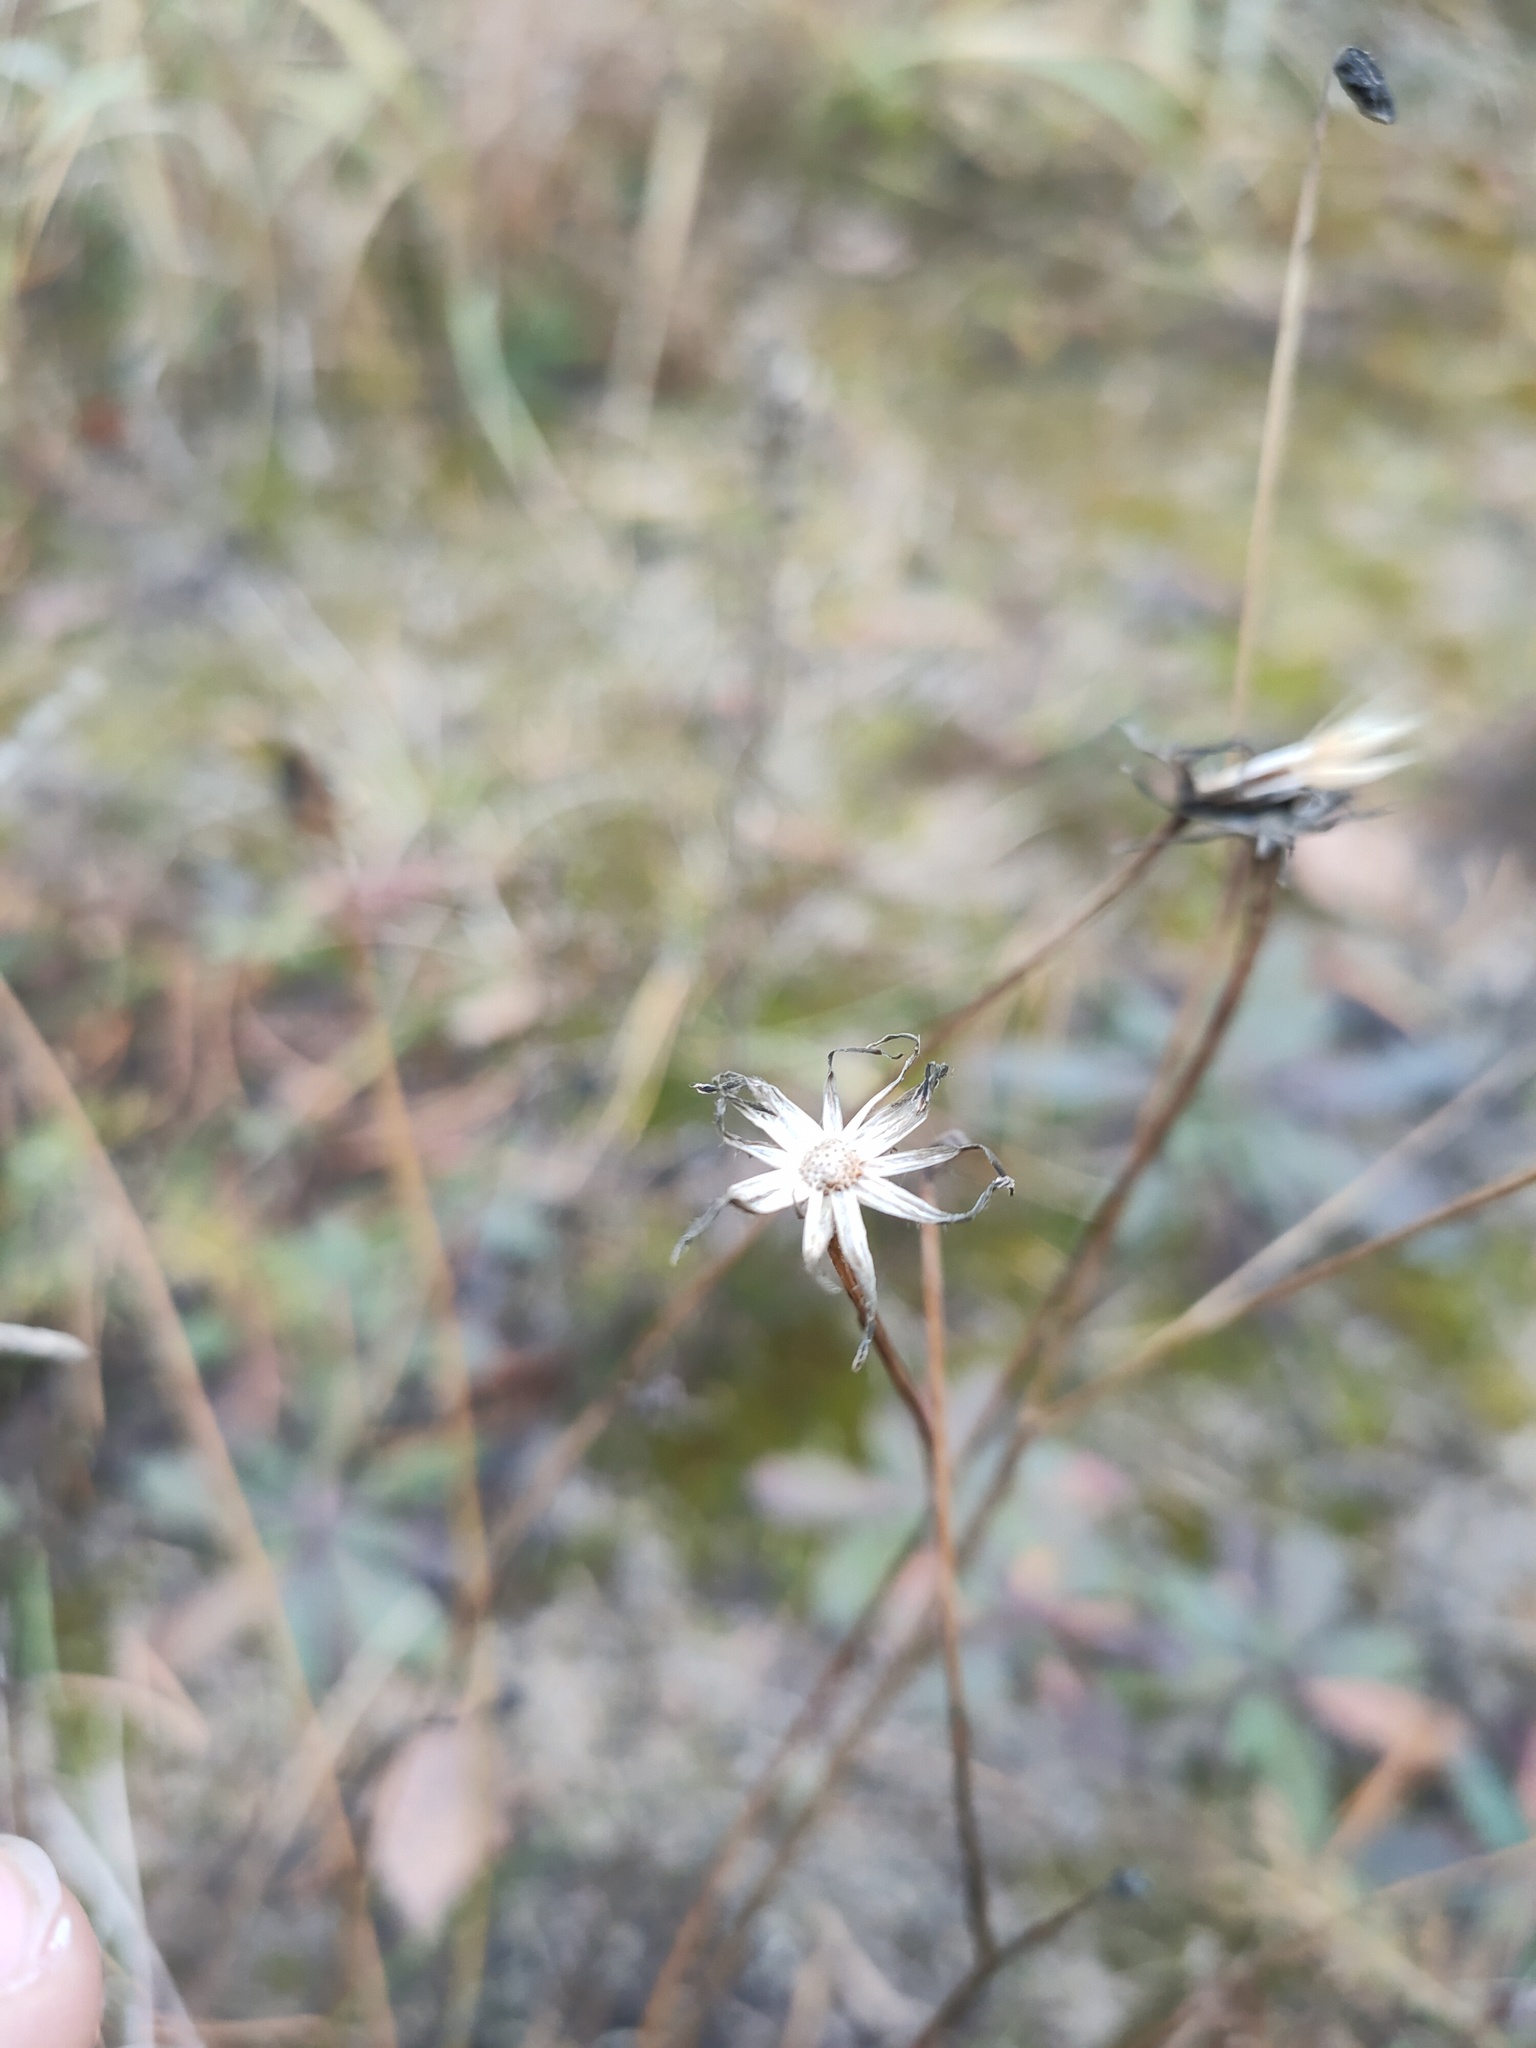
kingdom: Plantae
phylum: Tracheophyta
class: Magnoliopsida
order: Asterales
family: Asteraceae
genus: Erigeron
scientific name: Erigeron acris
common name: Blue fleabane
